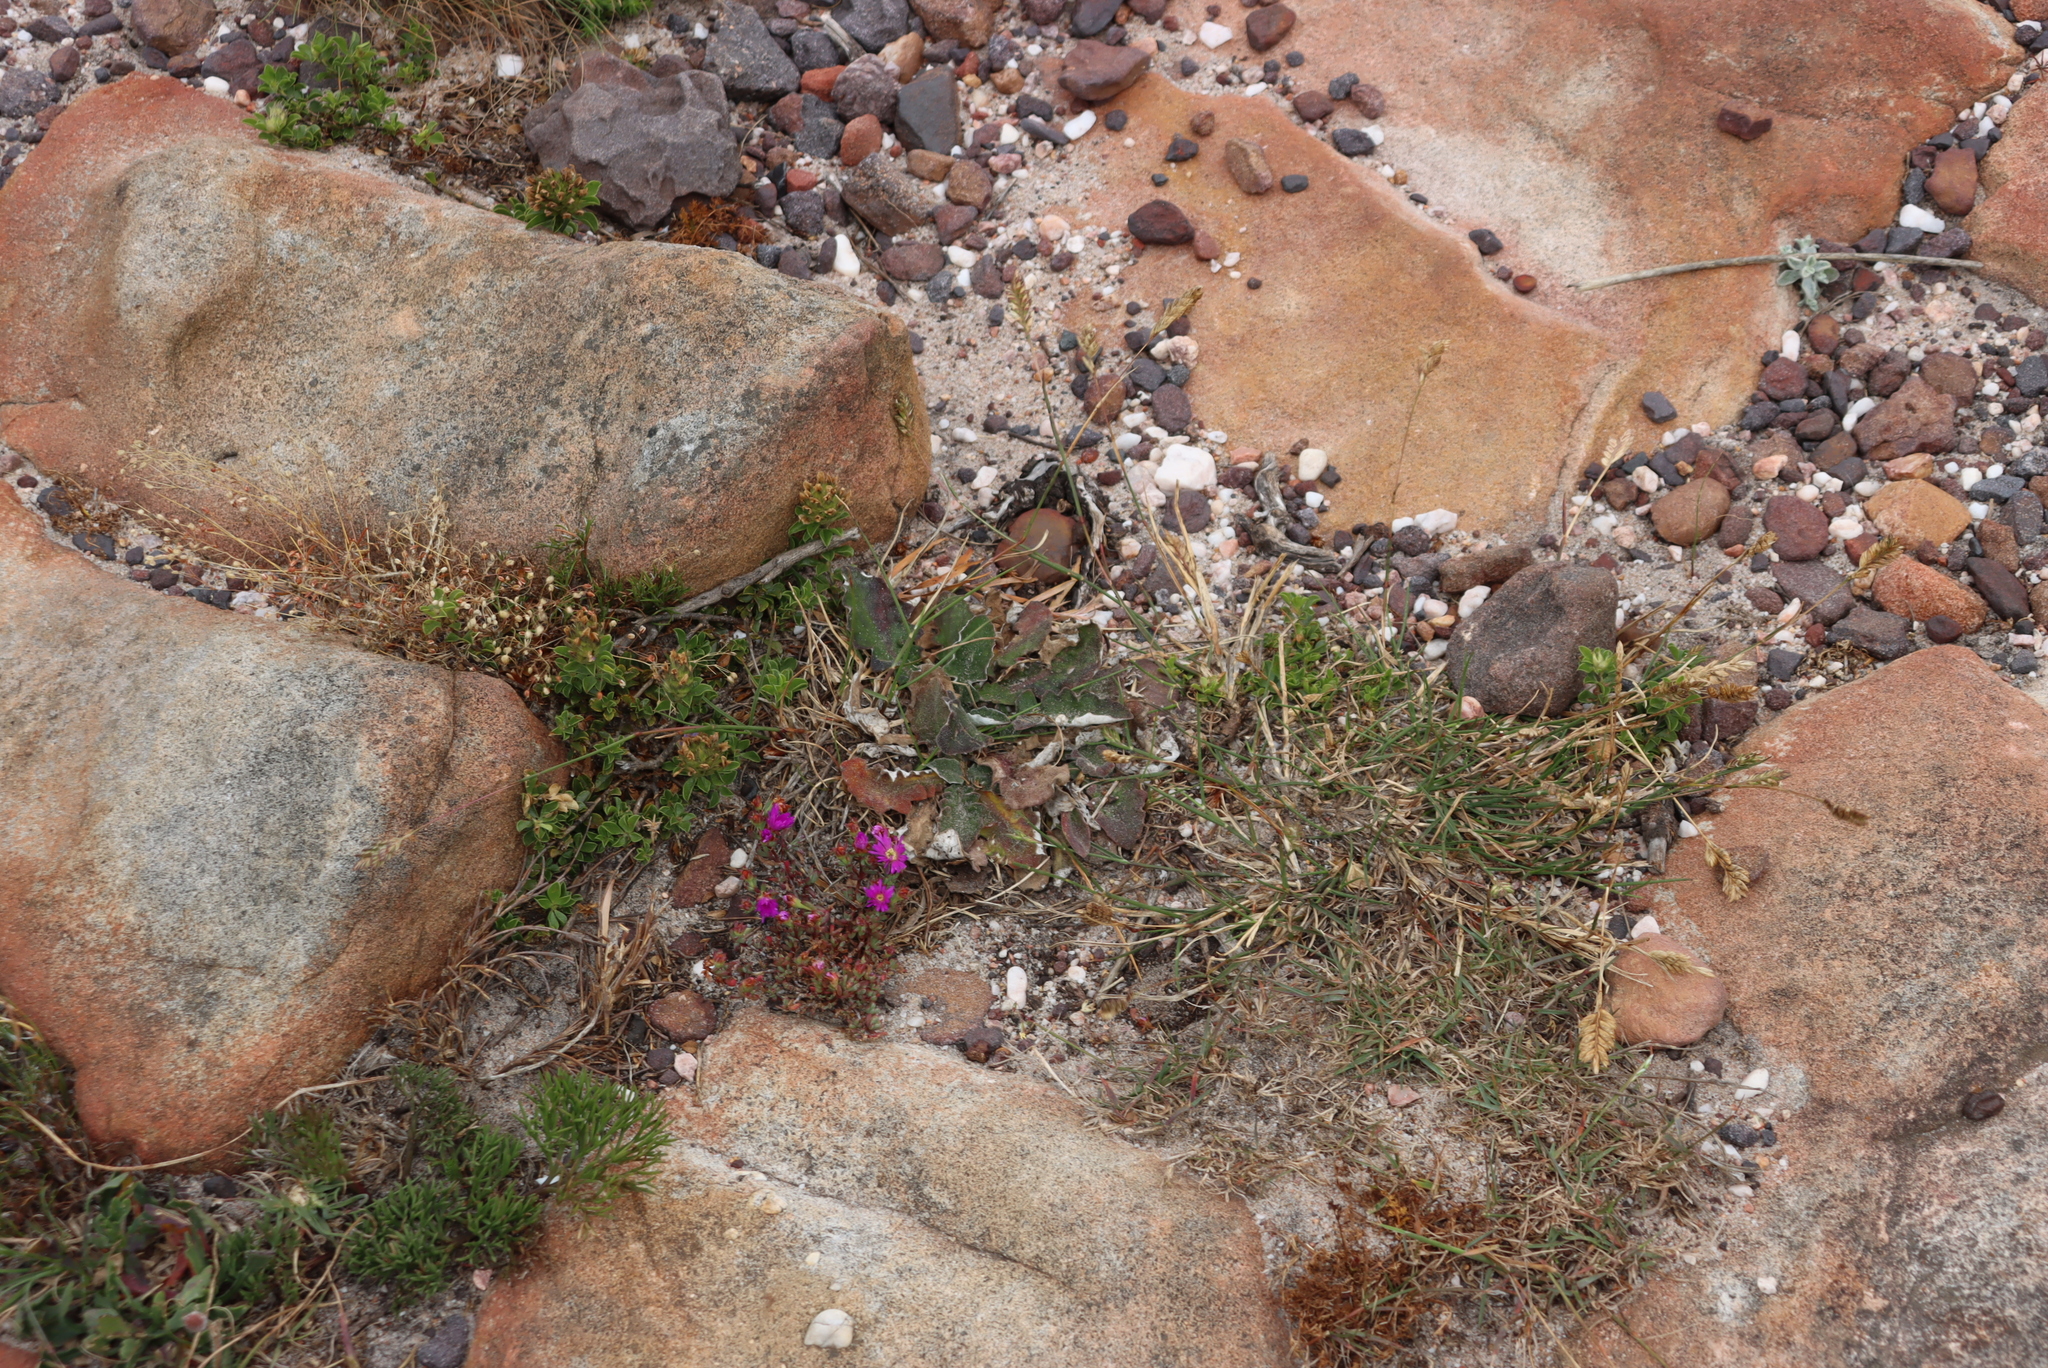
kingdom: Plantae
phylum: Tracheophyta
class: Magnoliopsida
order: Caryophyllales
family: Aizoaceae
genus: Oscularia
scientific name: Oscularia falciformis
